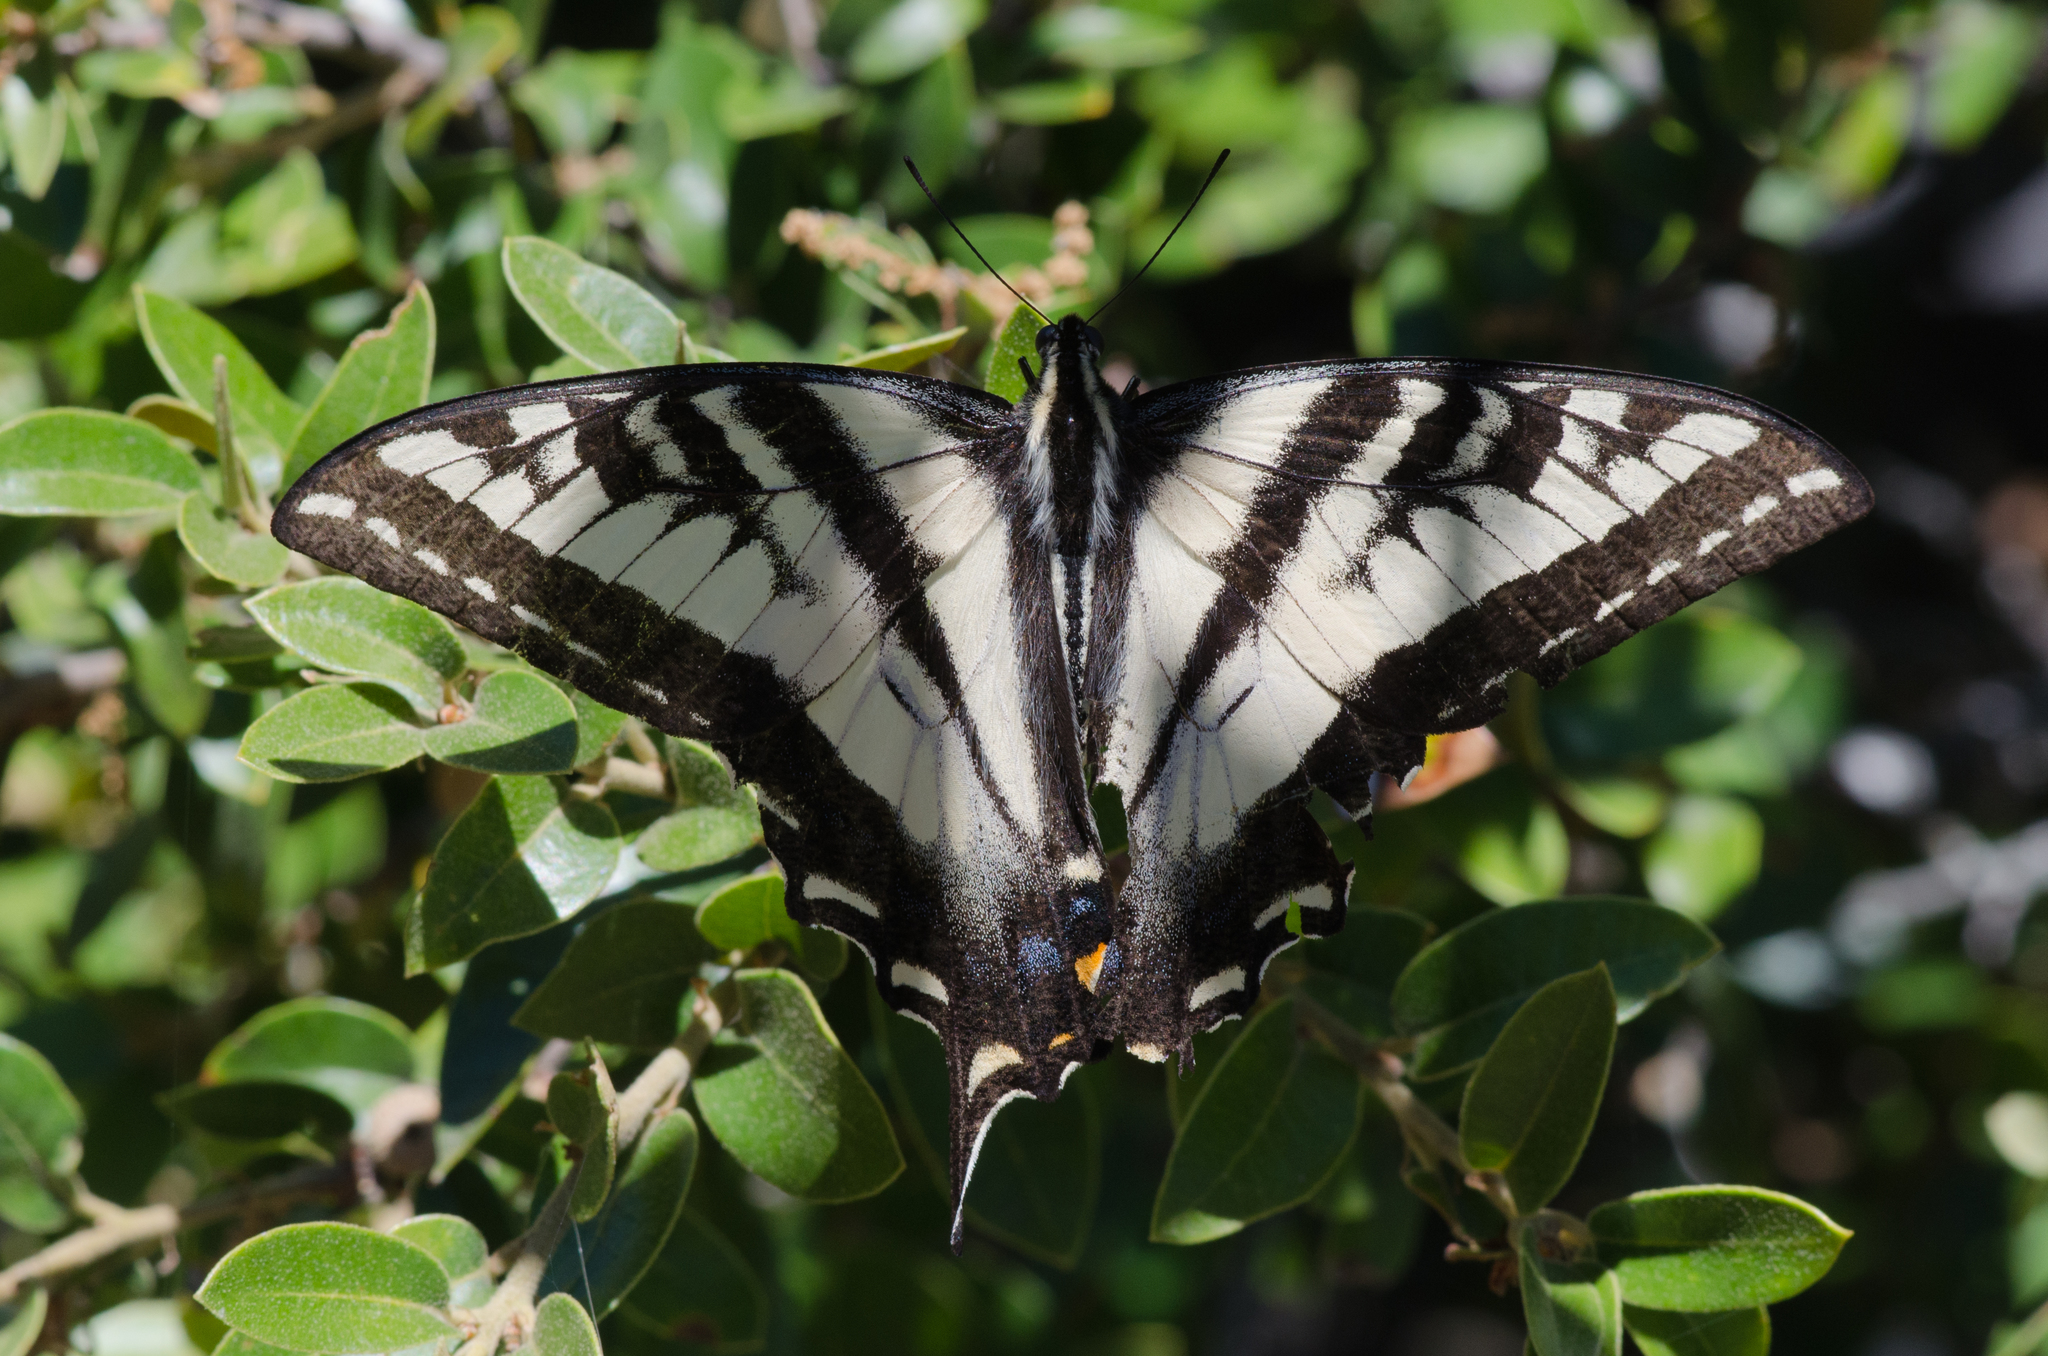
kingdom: Animalia
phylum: Arthropoda
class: Insecta
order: Lepidoptera
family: Papilionidae
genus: Papilio
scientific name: Papilio eurymedon
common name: Pale tiger swallowtail
